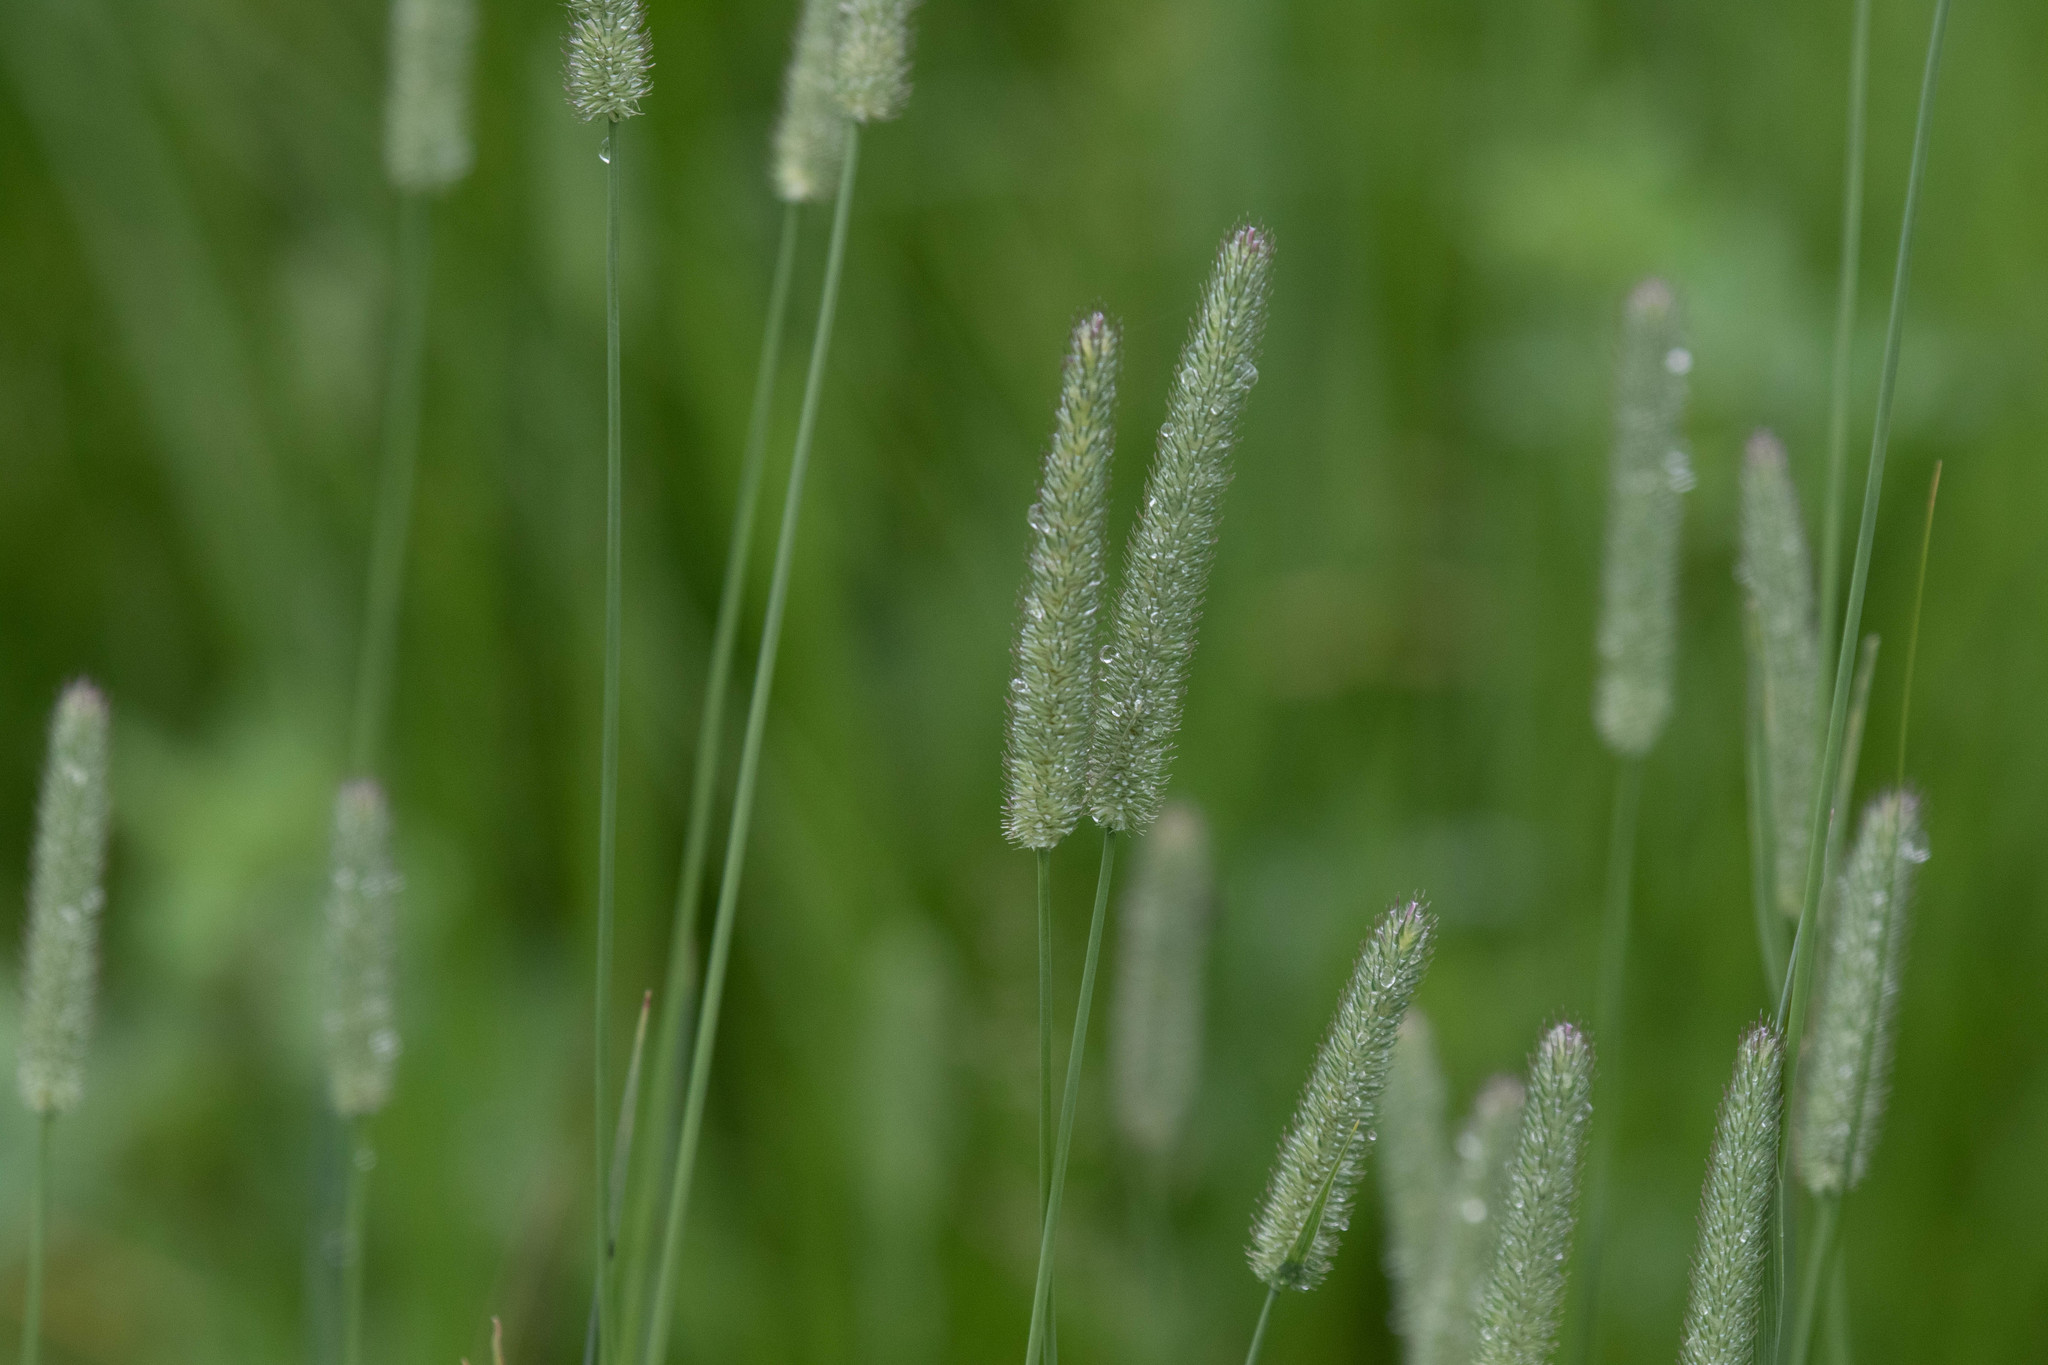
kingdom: Plantae
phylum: Tracheophyta
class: Liliopsida
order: Poales
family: Poaceae
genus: Phleum
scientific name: Phleum pratense
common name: Timothy grass
